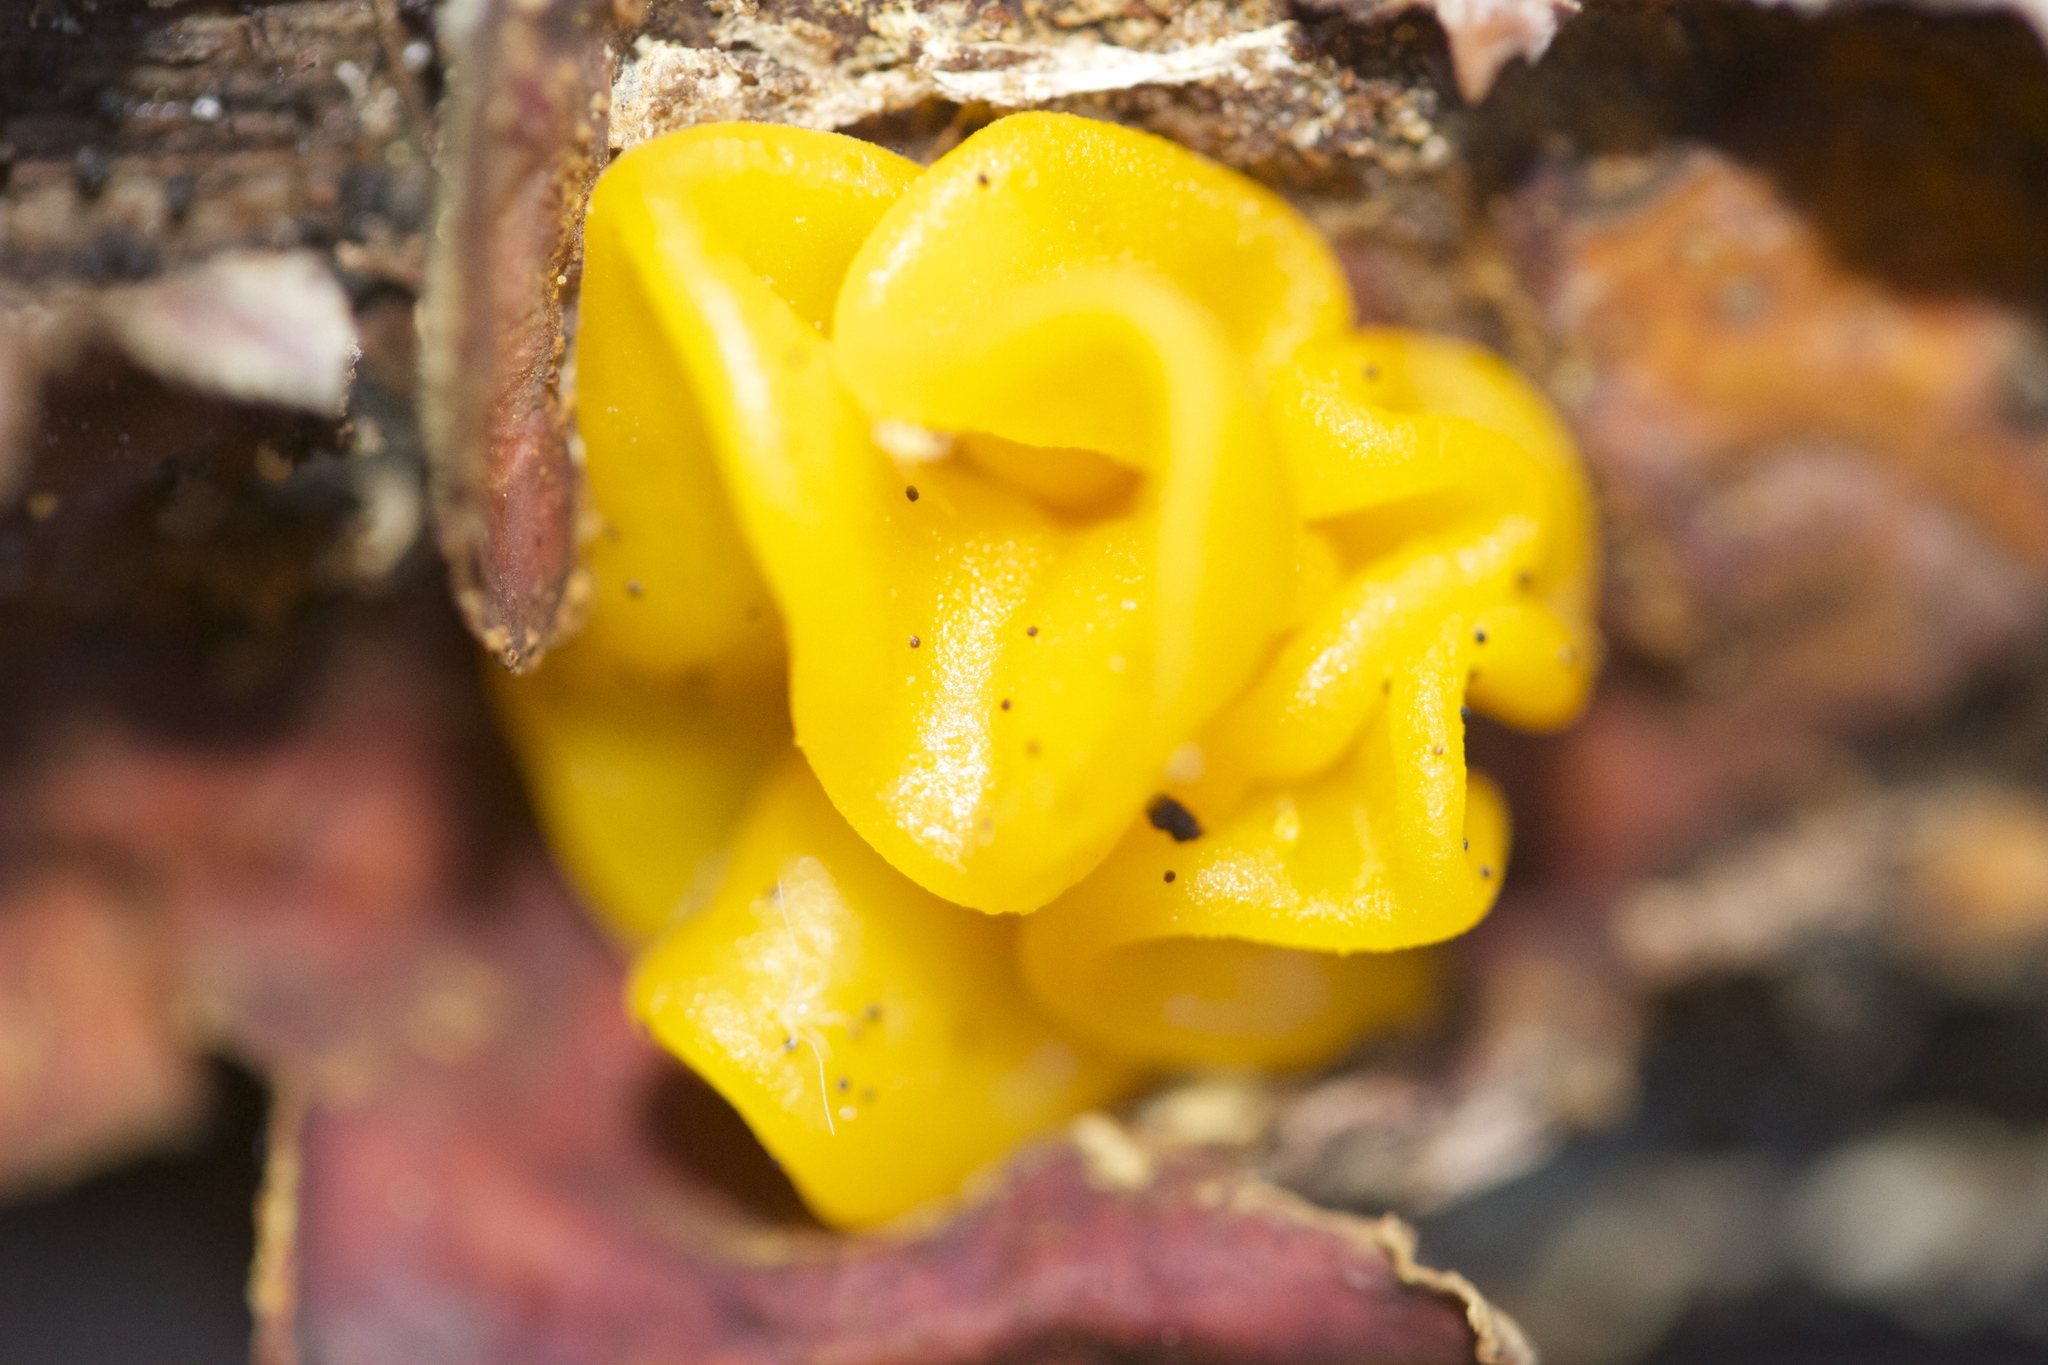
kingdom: Fungi
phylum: Basidiomycota
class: Tremellomycetes
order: Tremellales
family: Naemateliaceae
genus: Naematelia
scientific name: Naematelia aurantia
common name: Golden ear
